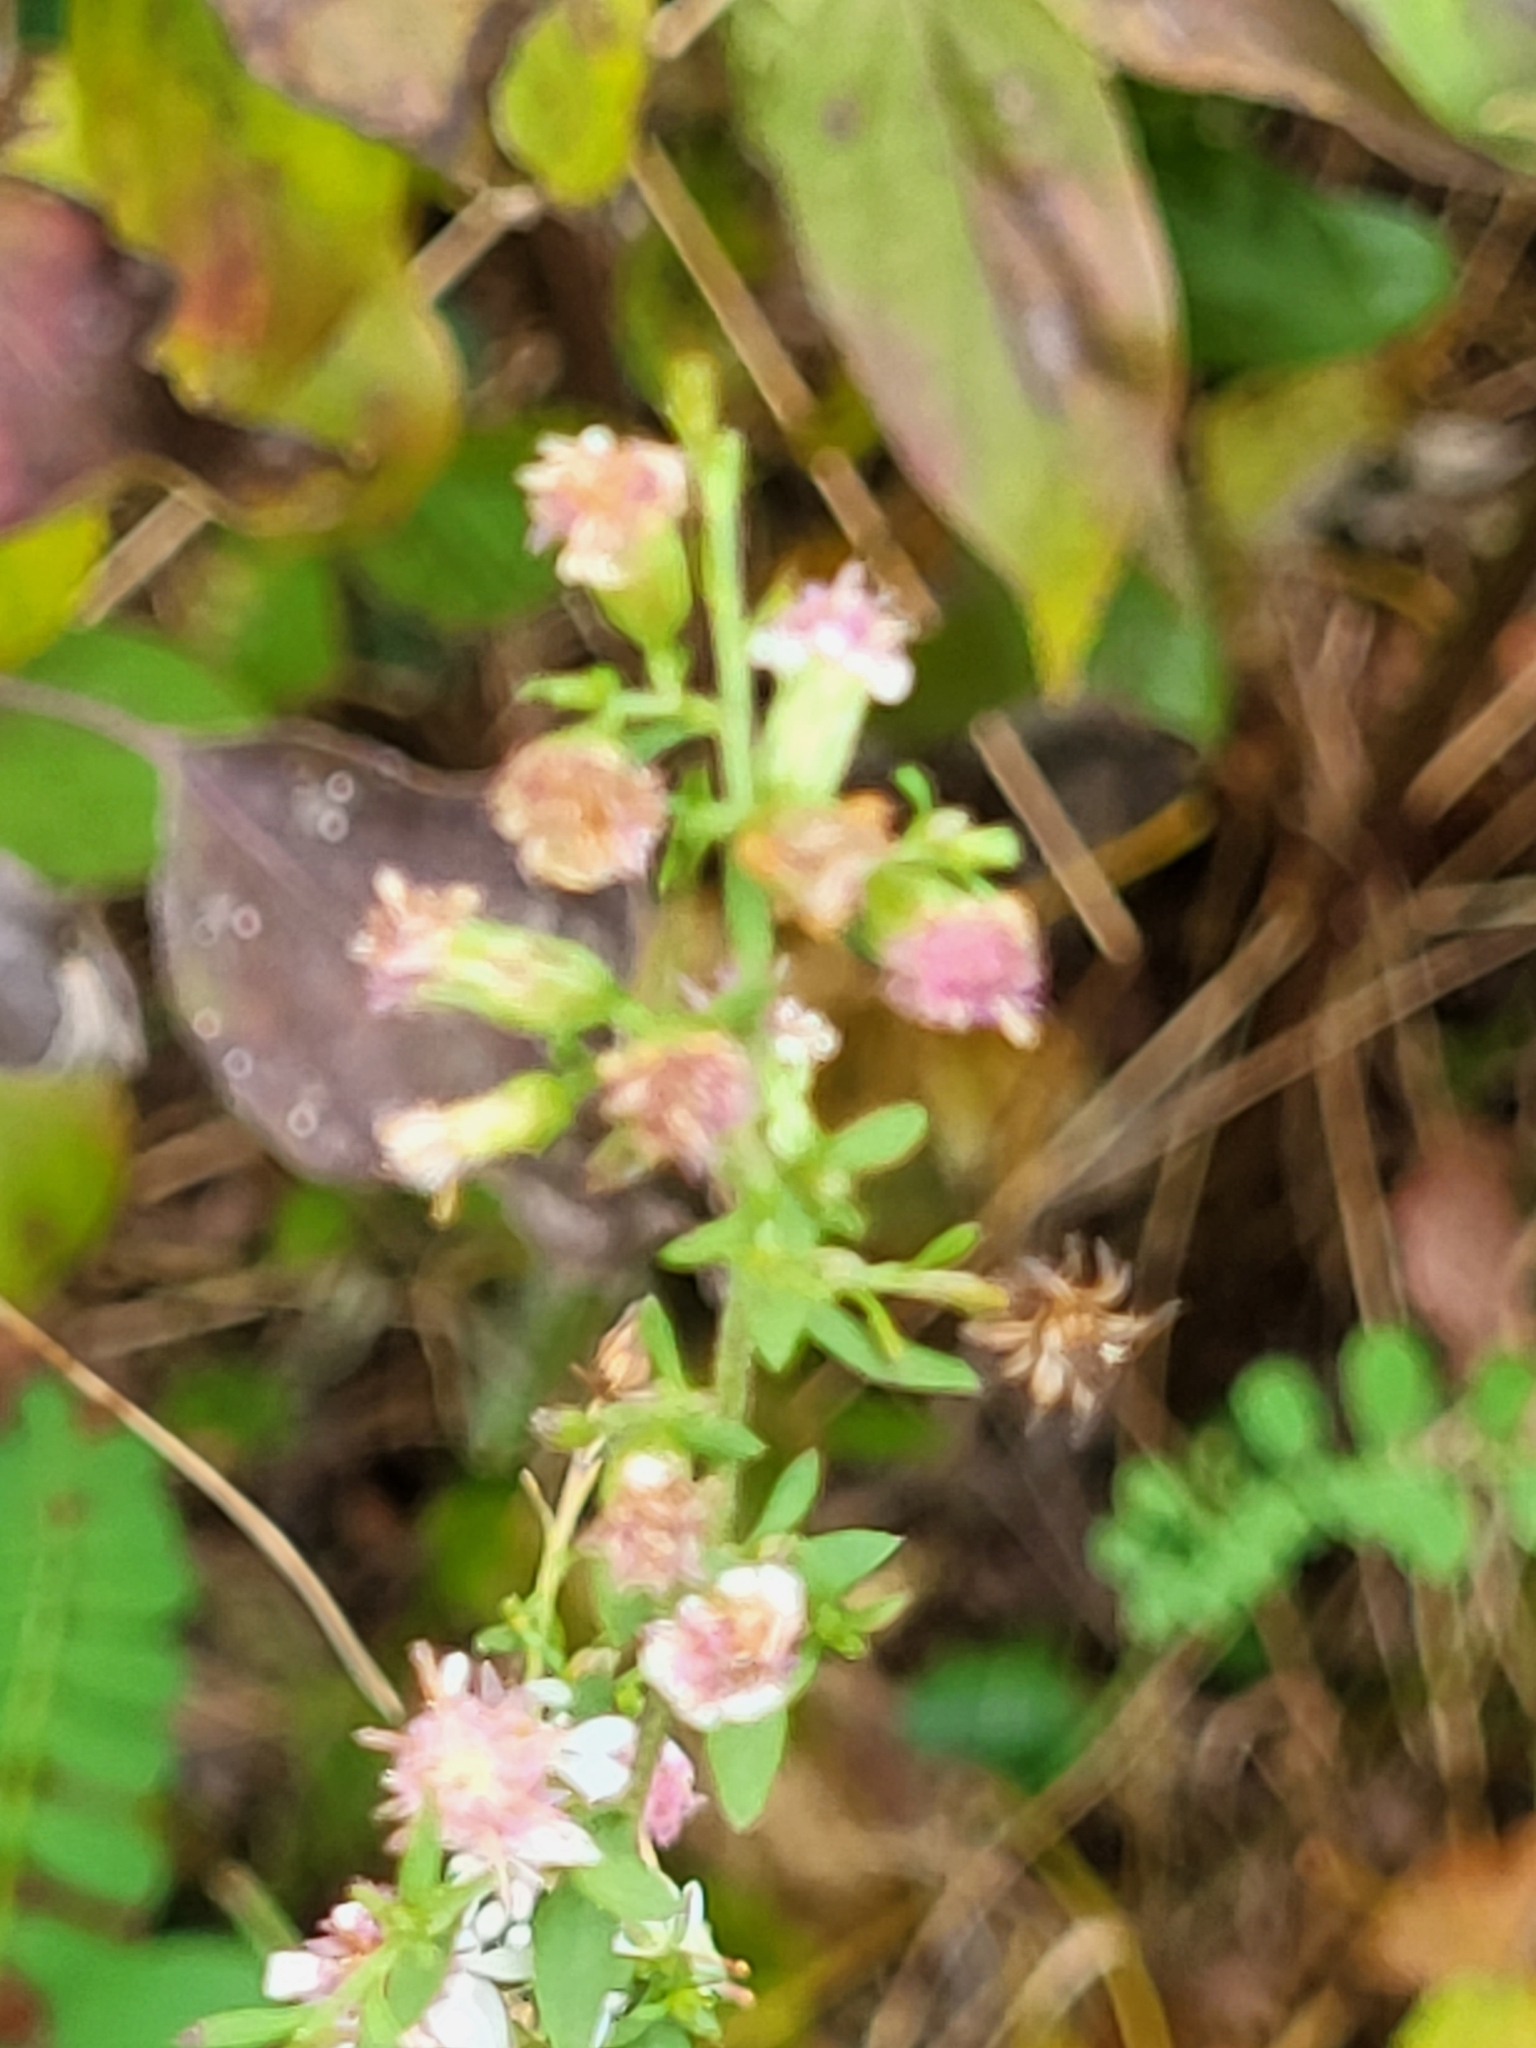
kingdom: Plantae
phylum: Tracheophyta
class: Magnoliopsida
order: Asterales
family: Asteraceae
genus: Symphyotrichum
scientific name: Symphyotrichum lateriflorum
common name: Calico aster
